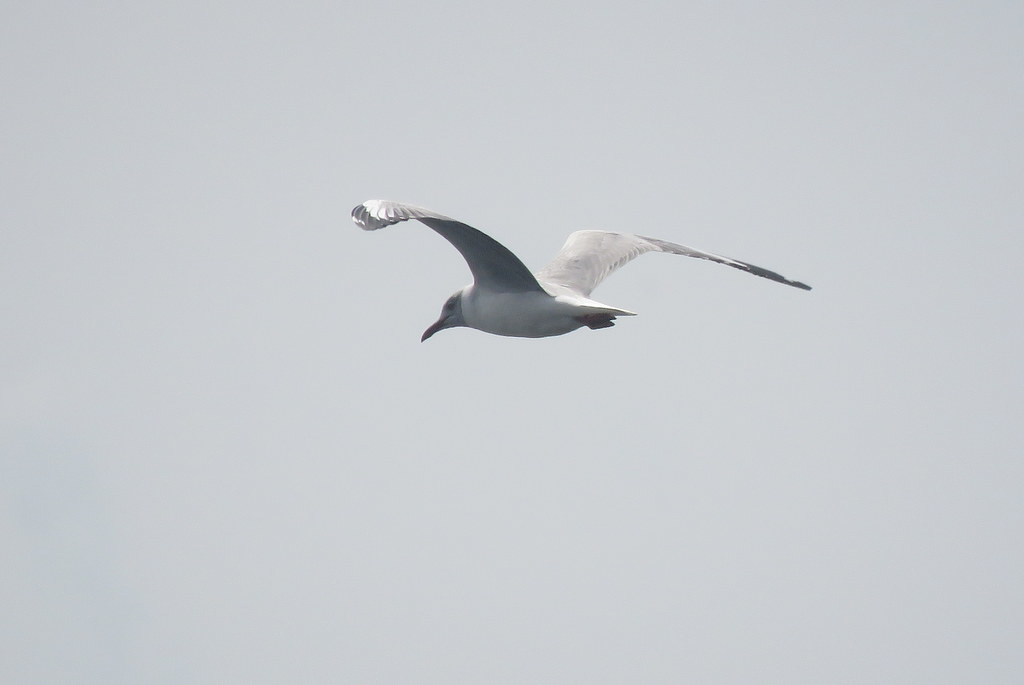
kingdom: Animalia
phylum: Chordata
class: Aves
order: Charadriiformes
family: Laridae
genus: Chroicocephalus
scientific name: Chroicocephalus cirrocephalus
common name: Grey-headed gull
